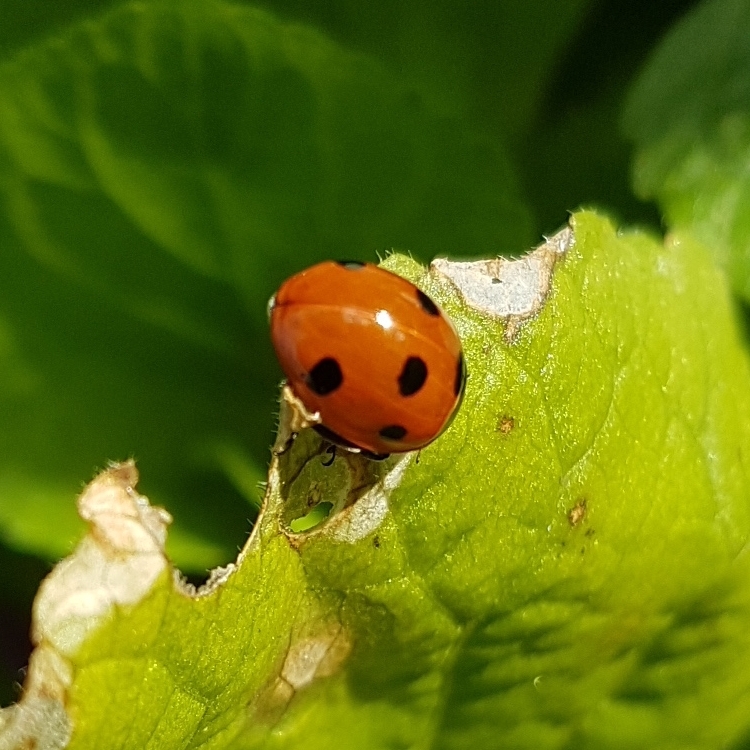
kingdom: Animalia
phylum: Arthropoda
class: Insecta
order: Coleoptera
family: Coccinellidae
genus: Coccinella
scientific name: Coccinella septempunctata
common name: Sevenspotted lady beetle
